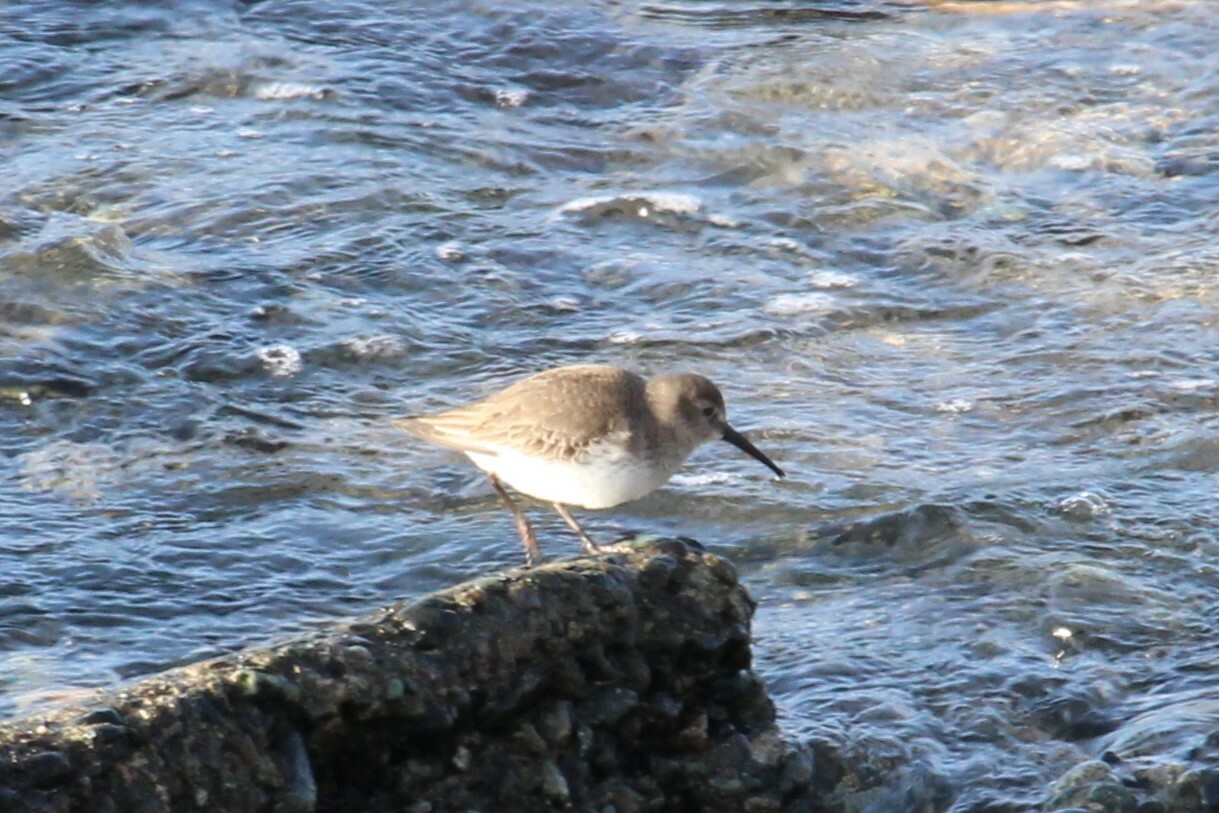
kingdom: Animalia
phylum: Chordata
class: Aves
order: Charadriiformes
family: Scolopacidae
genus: Calidris
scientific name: Calidris alpina
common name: Dunlin
